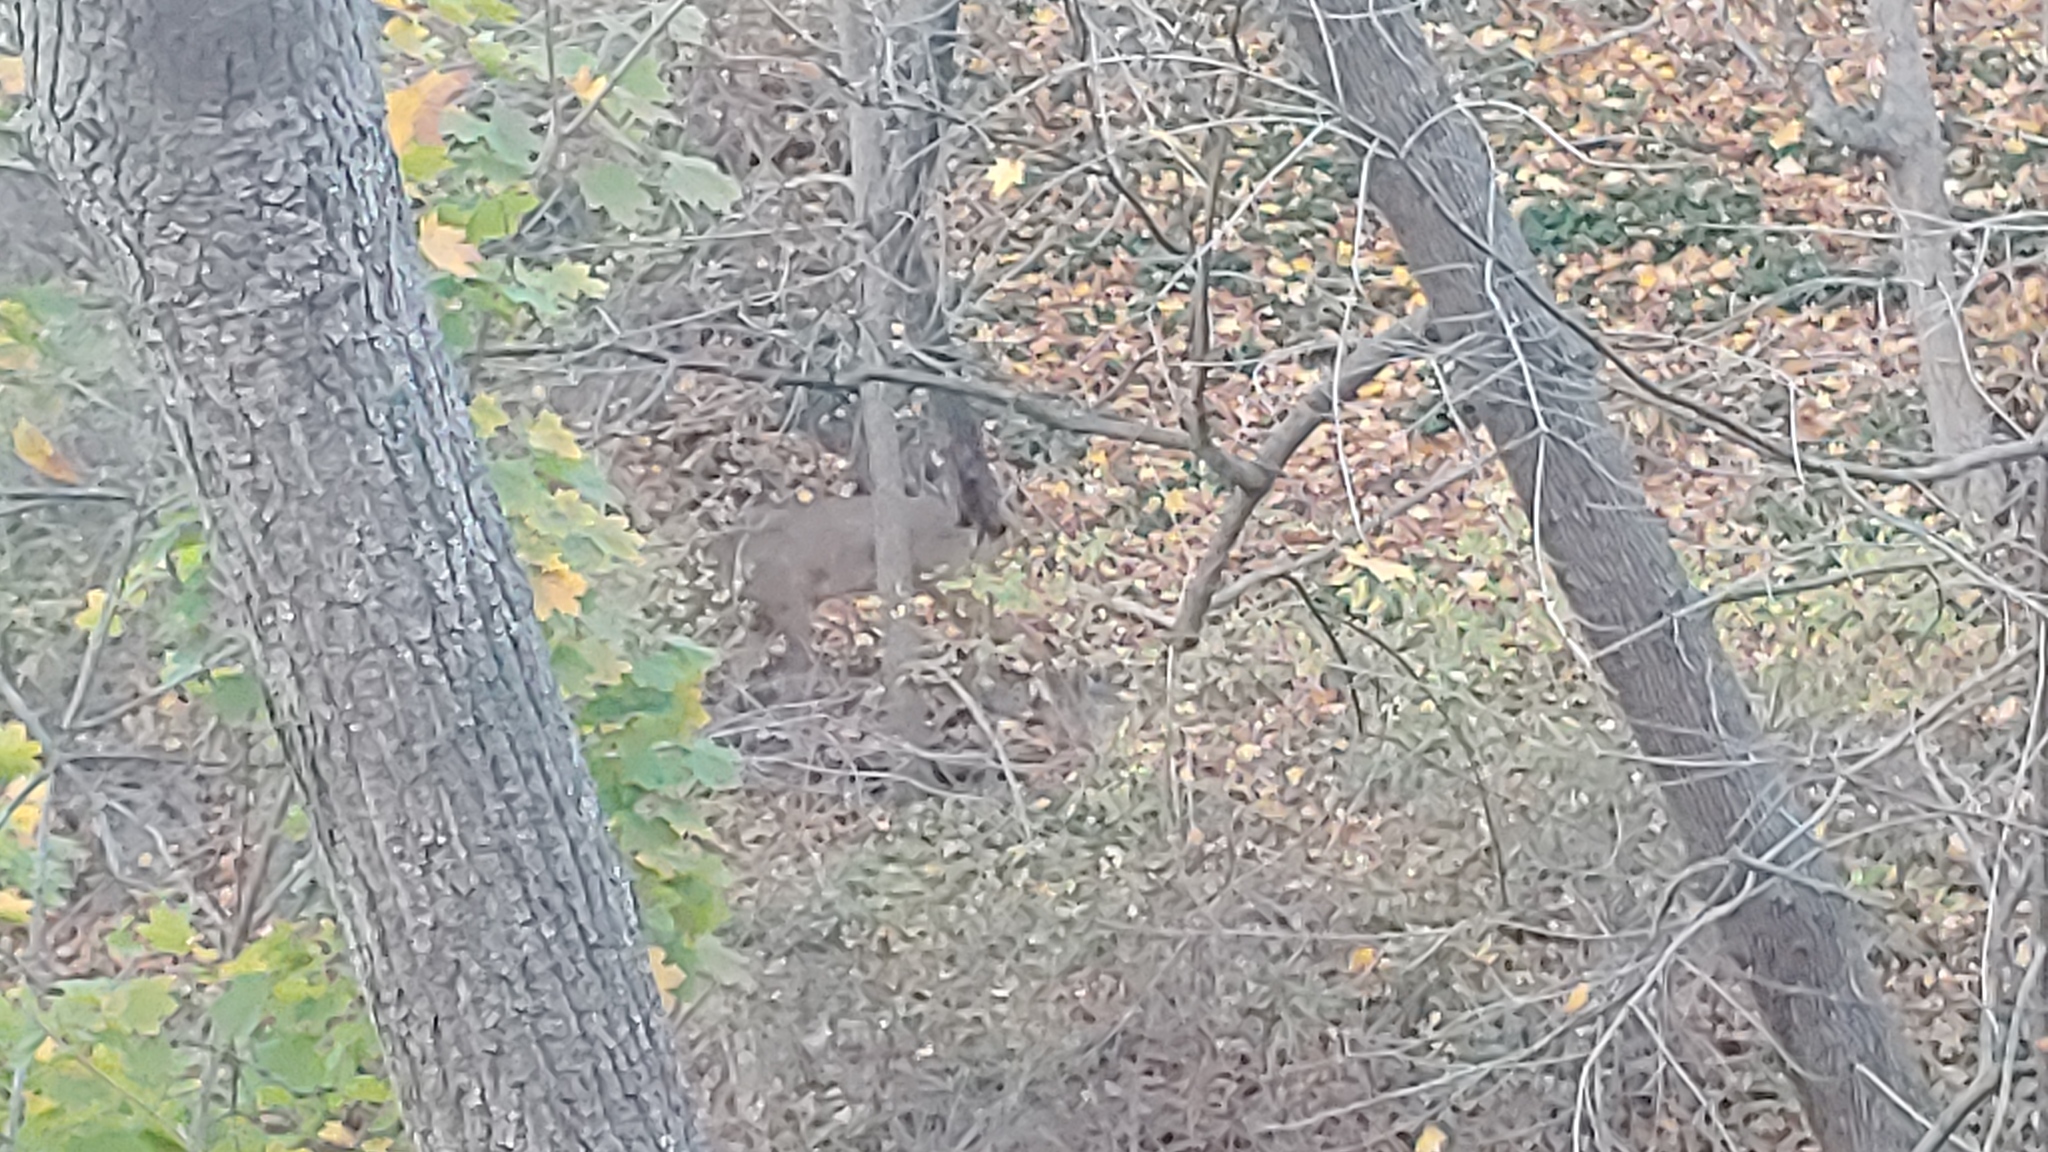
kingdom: Animalia
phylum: Chordata
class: Mammalia
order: Artiodactyla
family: Cervidae
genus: Odocoileus
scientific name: Odocoileus virginianus
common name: White-tailed deer
